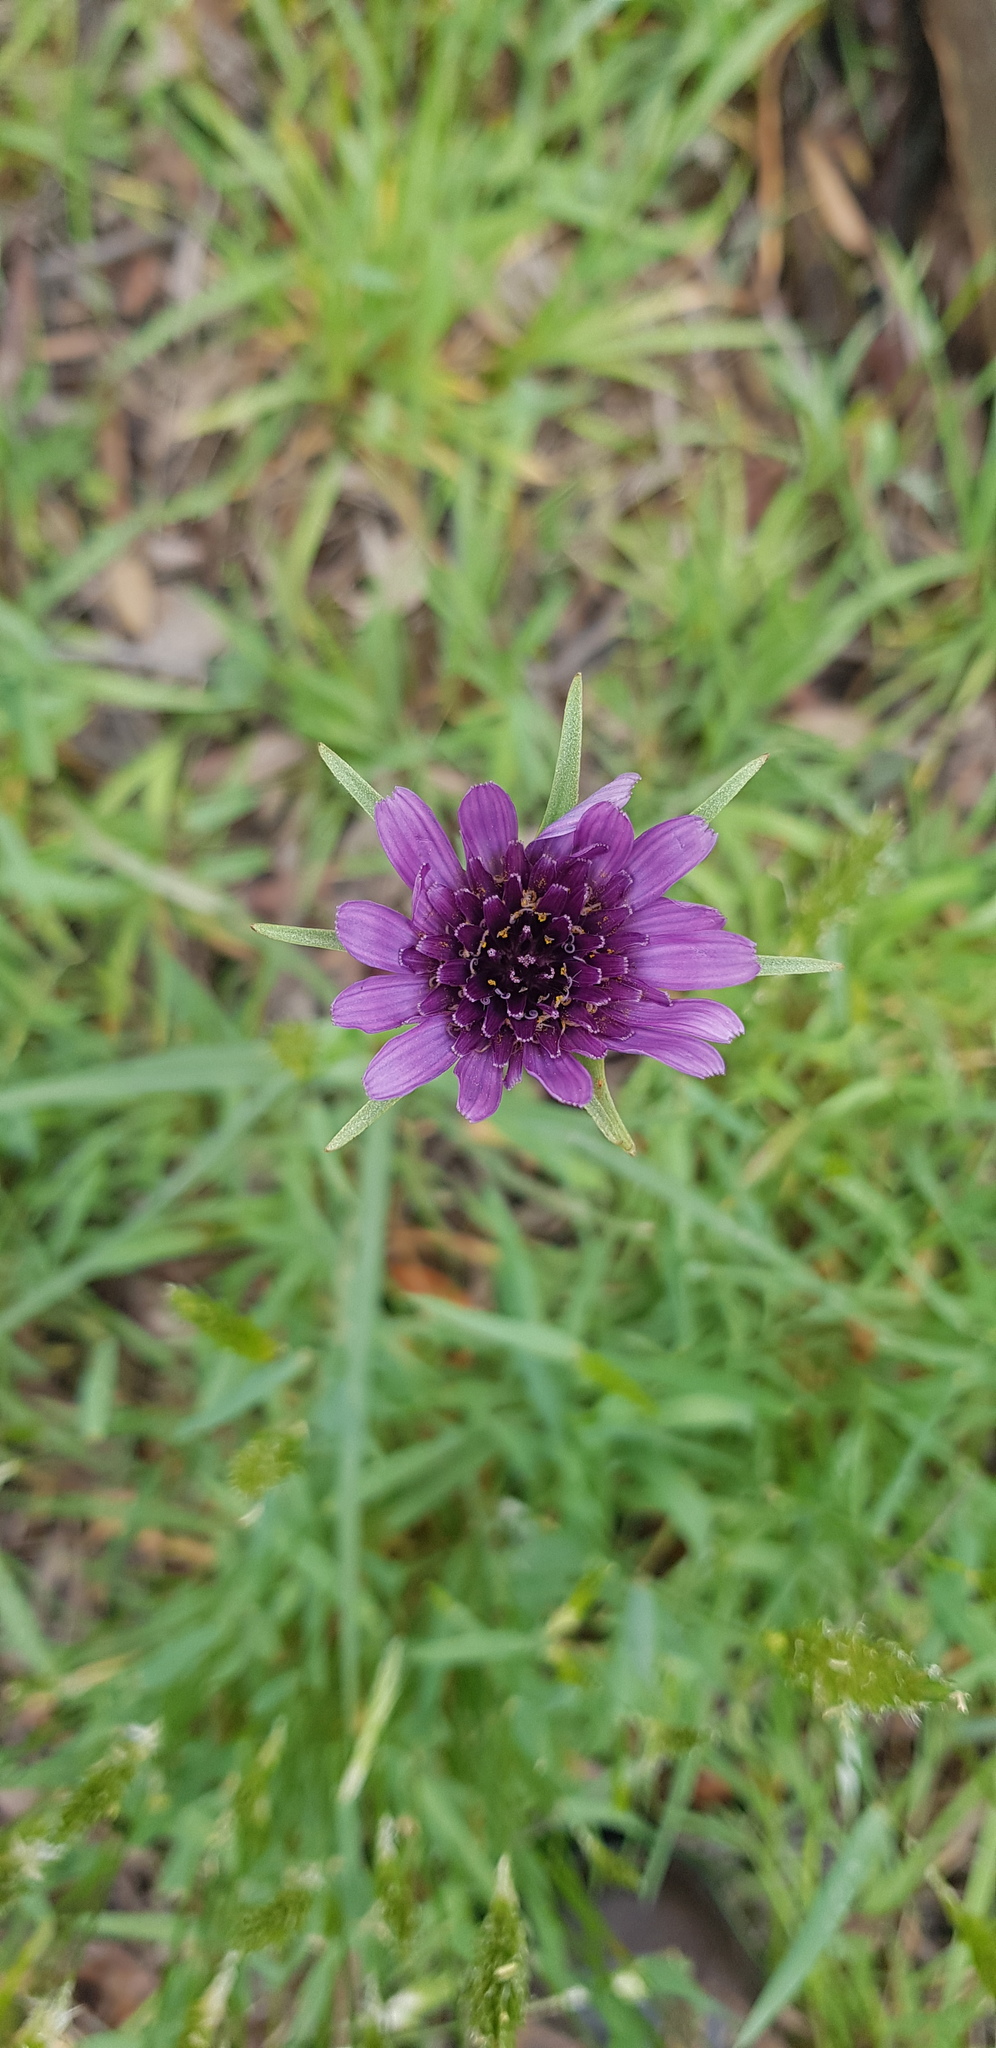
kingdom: Plantae
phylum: Tracheophyta
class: Magnoliopsida
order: Asterales
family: Asteraceae
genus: Tragopogon
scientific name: Tragopogon porrifolius
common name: Salsify
